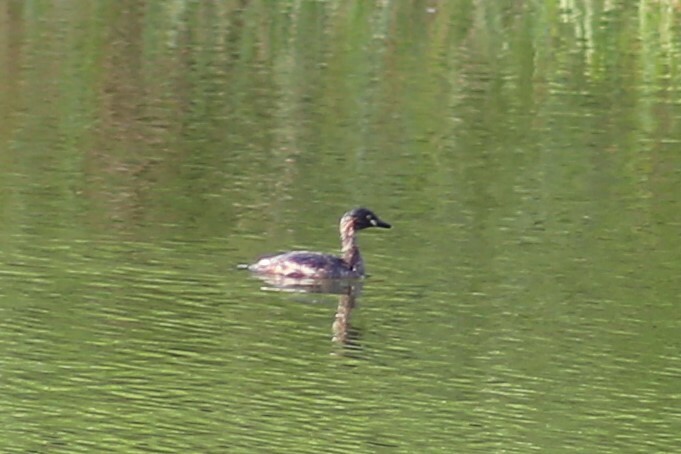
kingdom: Animalia
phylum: Chordata
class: Aves
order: Podicipediformes
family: Podicipedidae
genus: Tachybaptus
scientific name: Tachybaptus novaehollandiae
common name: Australasian grebe
